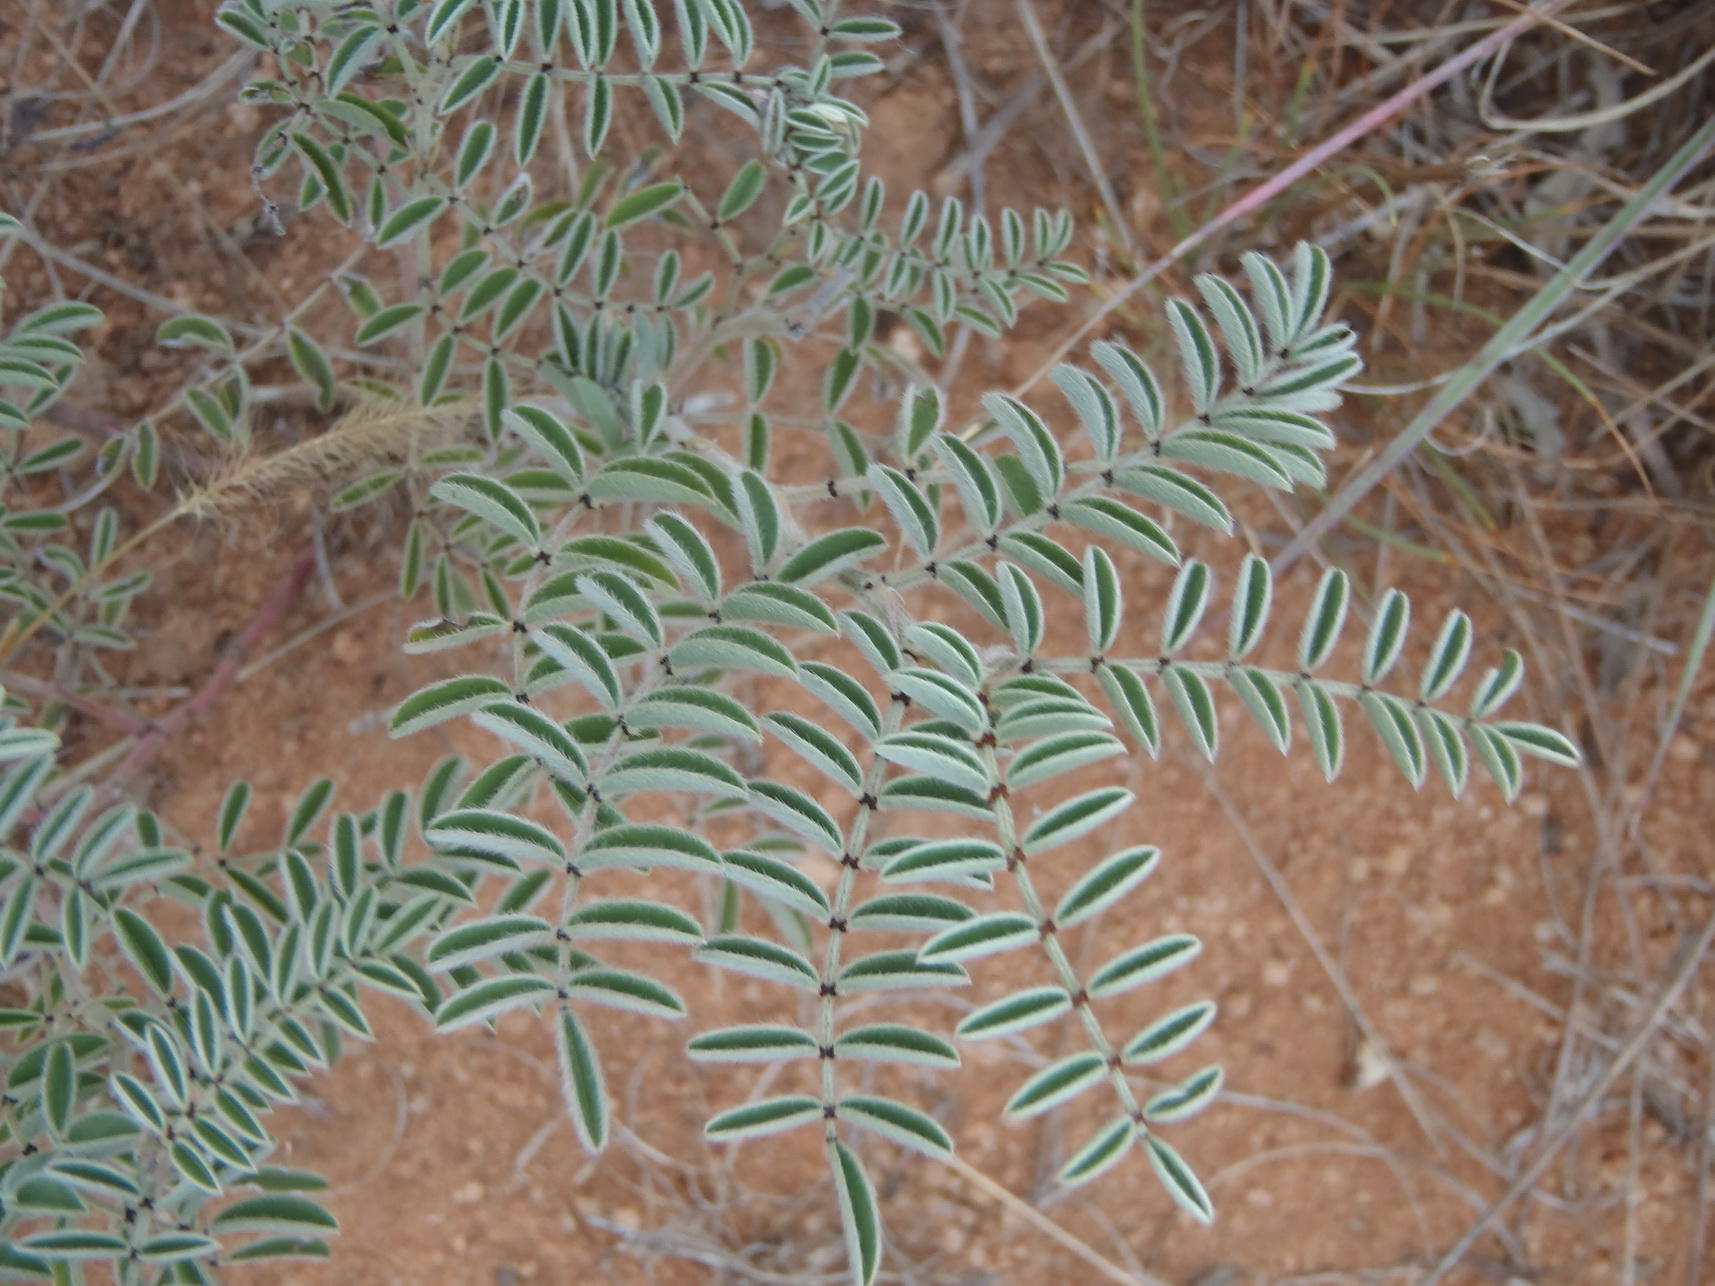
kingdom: Plantae
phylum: Tracheophyta
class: Magnoliopsida
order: Fabales
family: Fabaceae
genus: Indigofera
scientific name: Indigofera oxytropis
